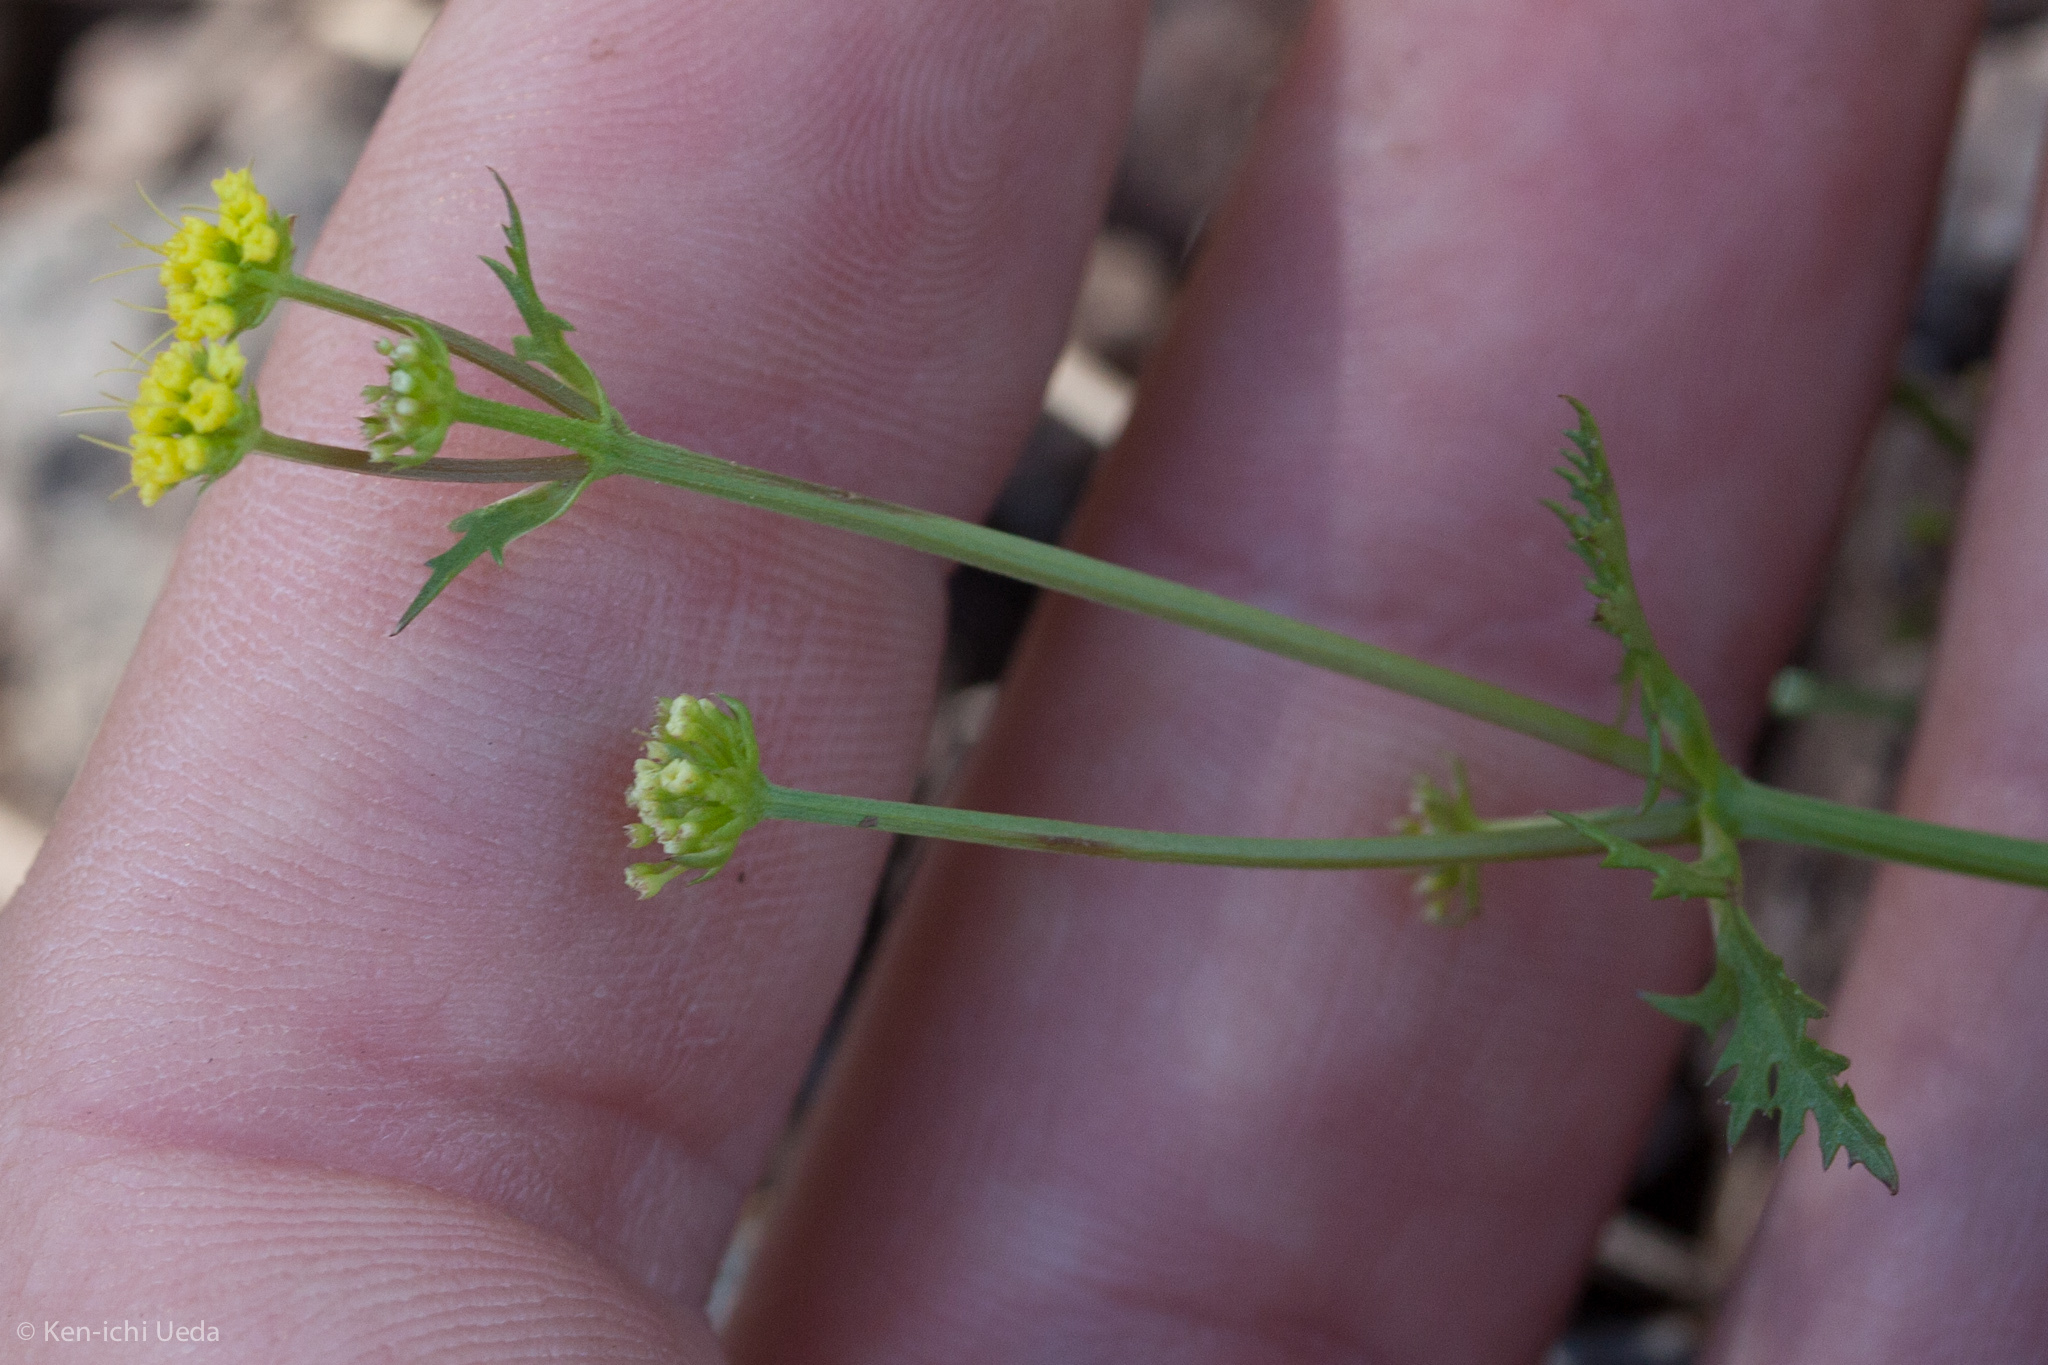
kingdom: Plantae
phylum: Tracheophyta
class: Magnoliopsida
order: Apiales
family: Apiaceae
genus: Sanicula
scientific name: Sanicula tuberosa
